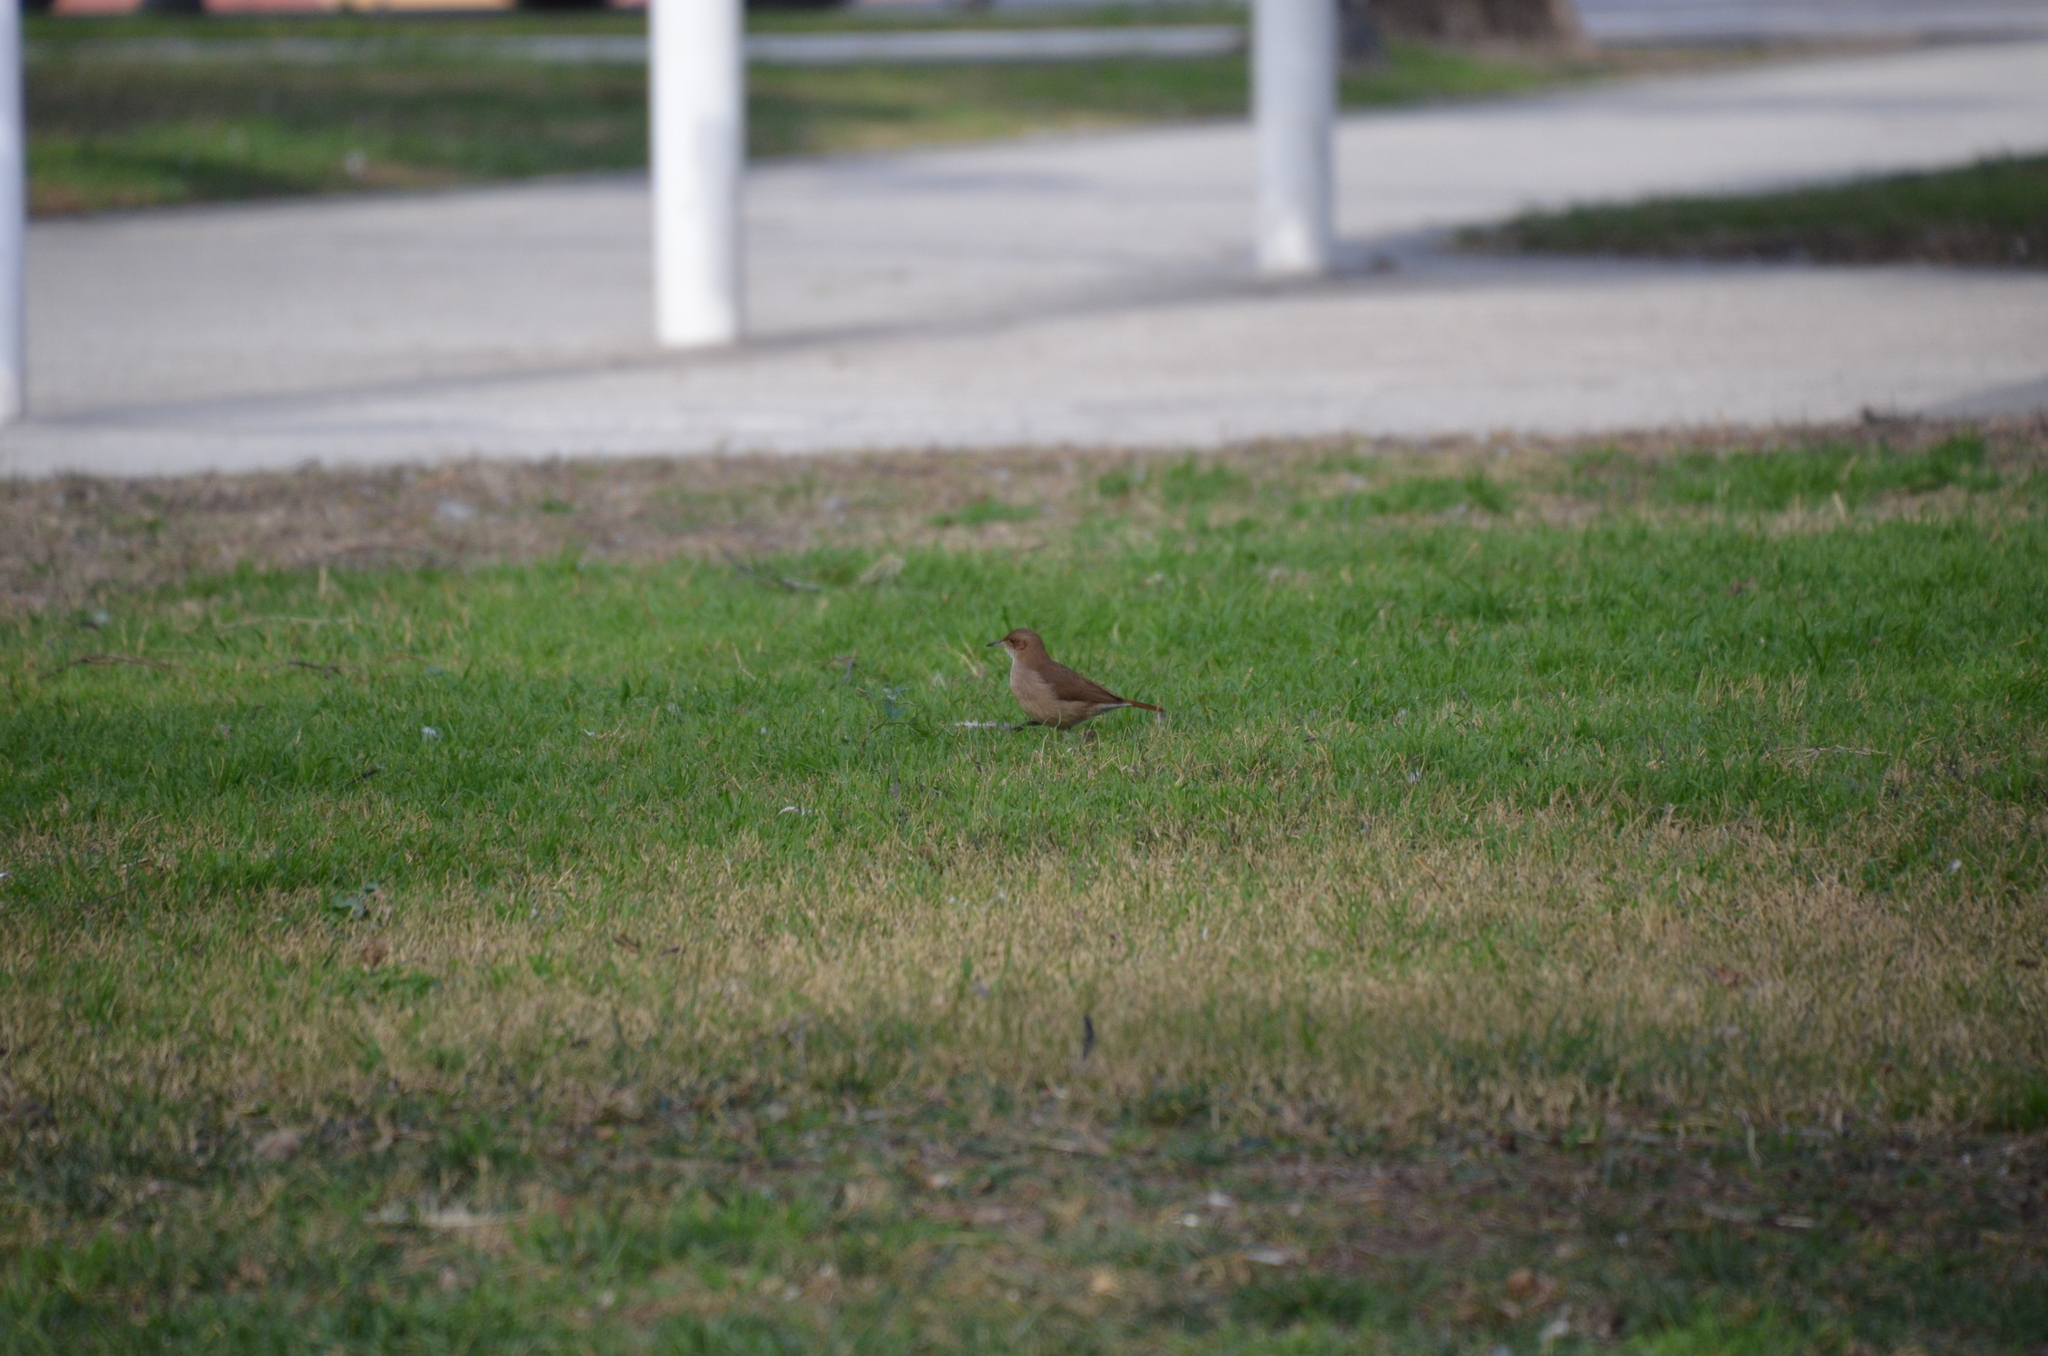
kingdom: Animalia
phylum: Chordata
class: Aves
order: Passeriformes
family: Furnariidae
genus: Furnarius
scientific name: Furnarius rufus
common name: Rufous hornero
